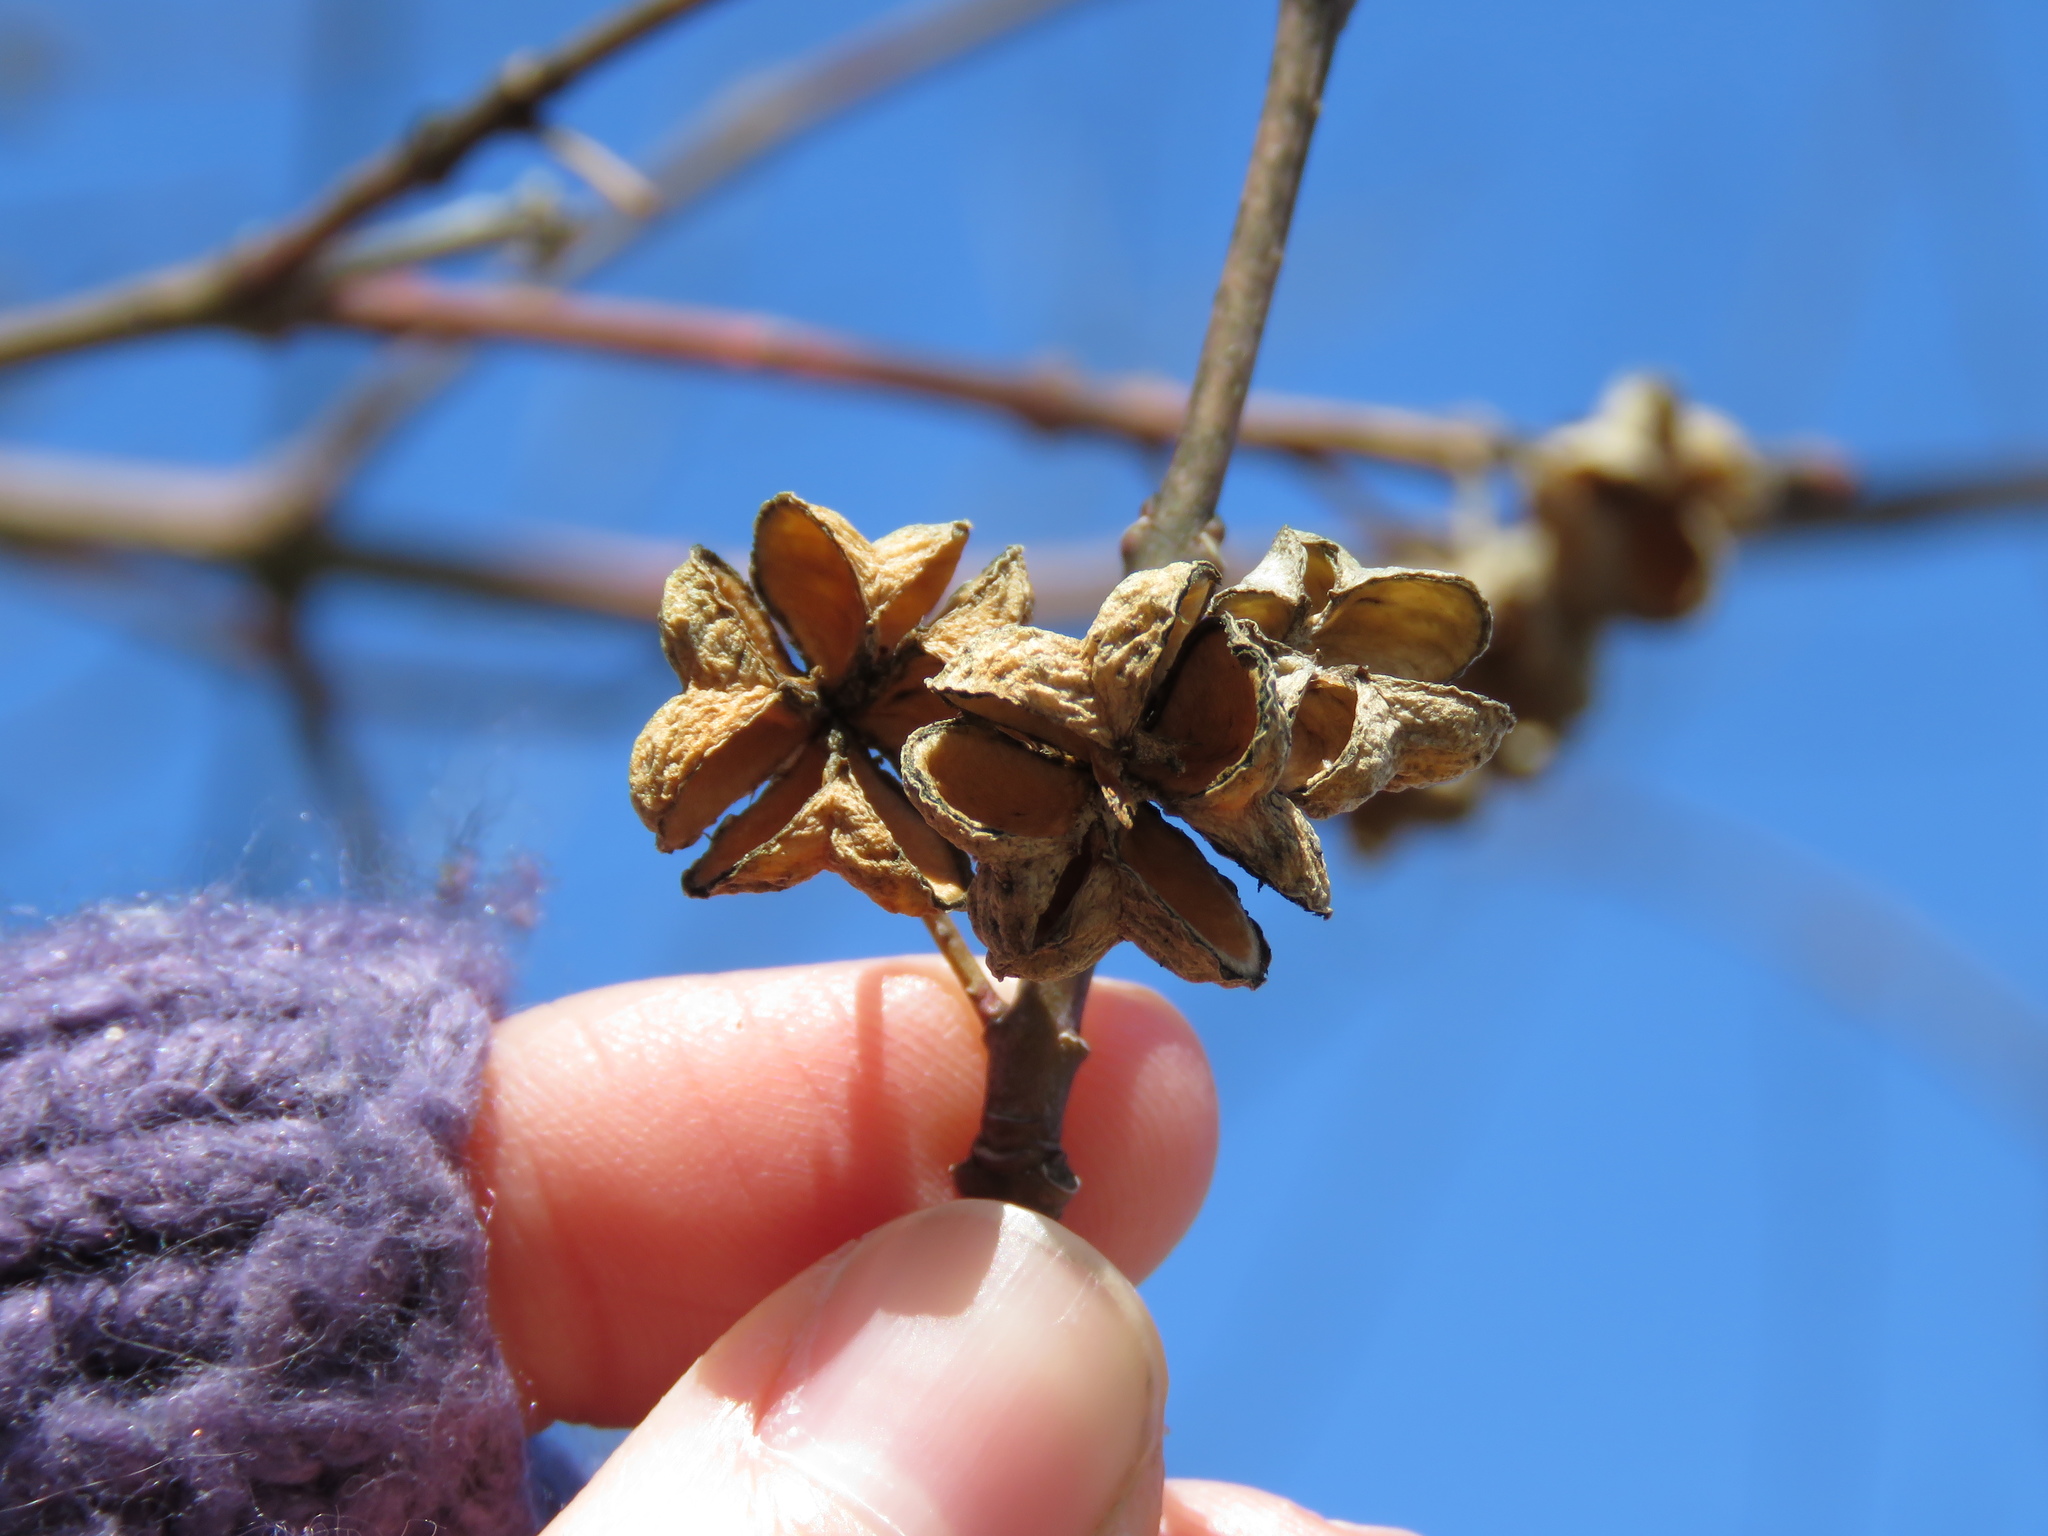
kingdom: Plantae
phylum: Tracheophyta
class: Magnoliopsida
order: Celastrales
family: Celastraceae
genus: Euonymus
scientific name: Euonymus atropurpureus
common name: Eastern wahoo
